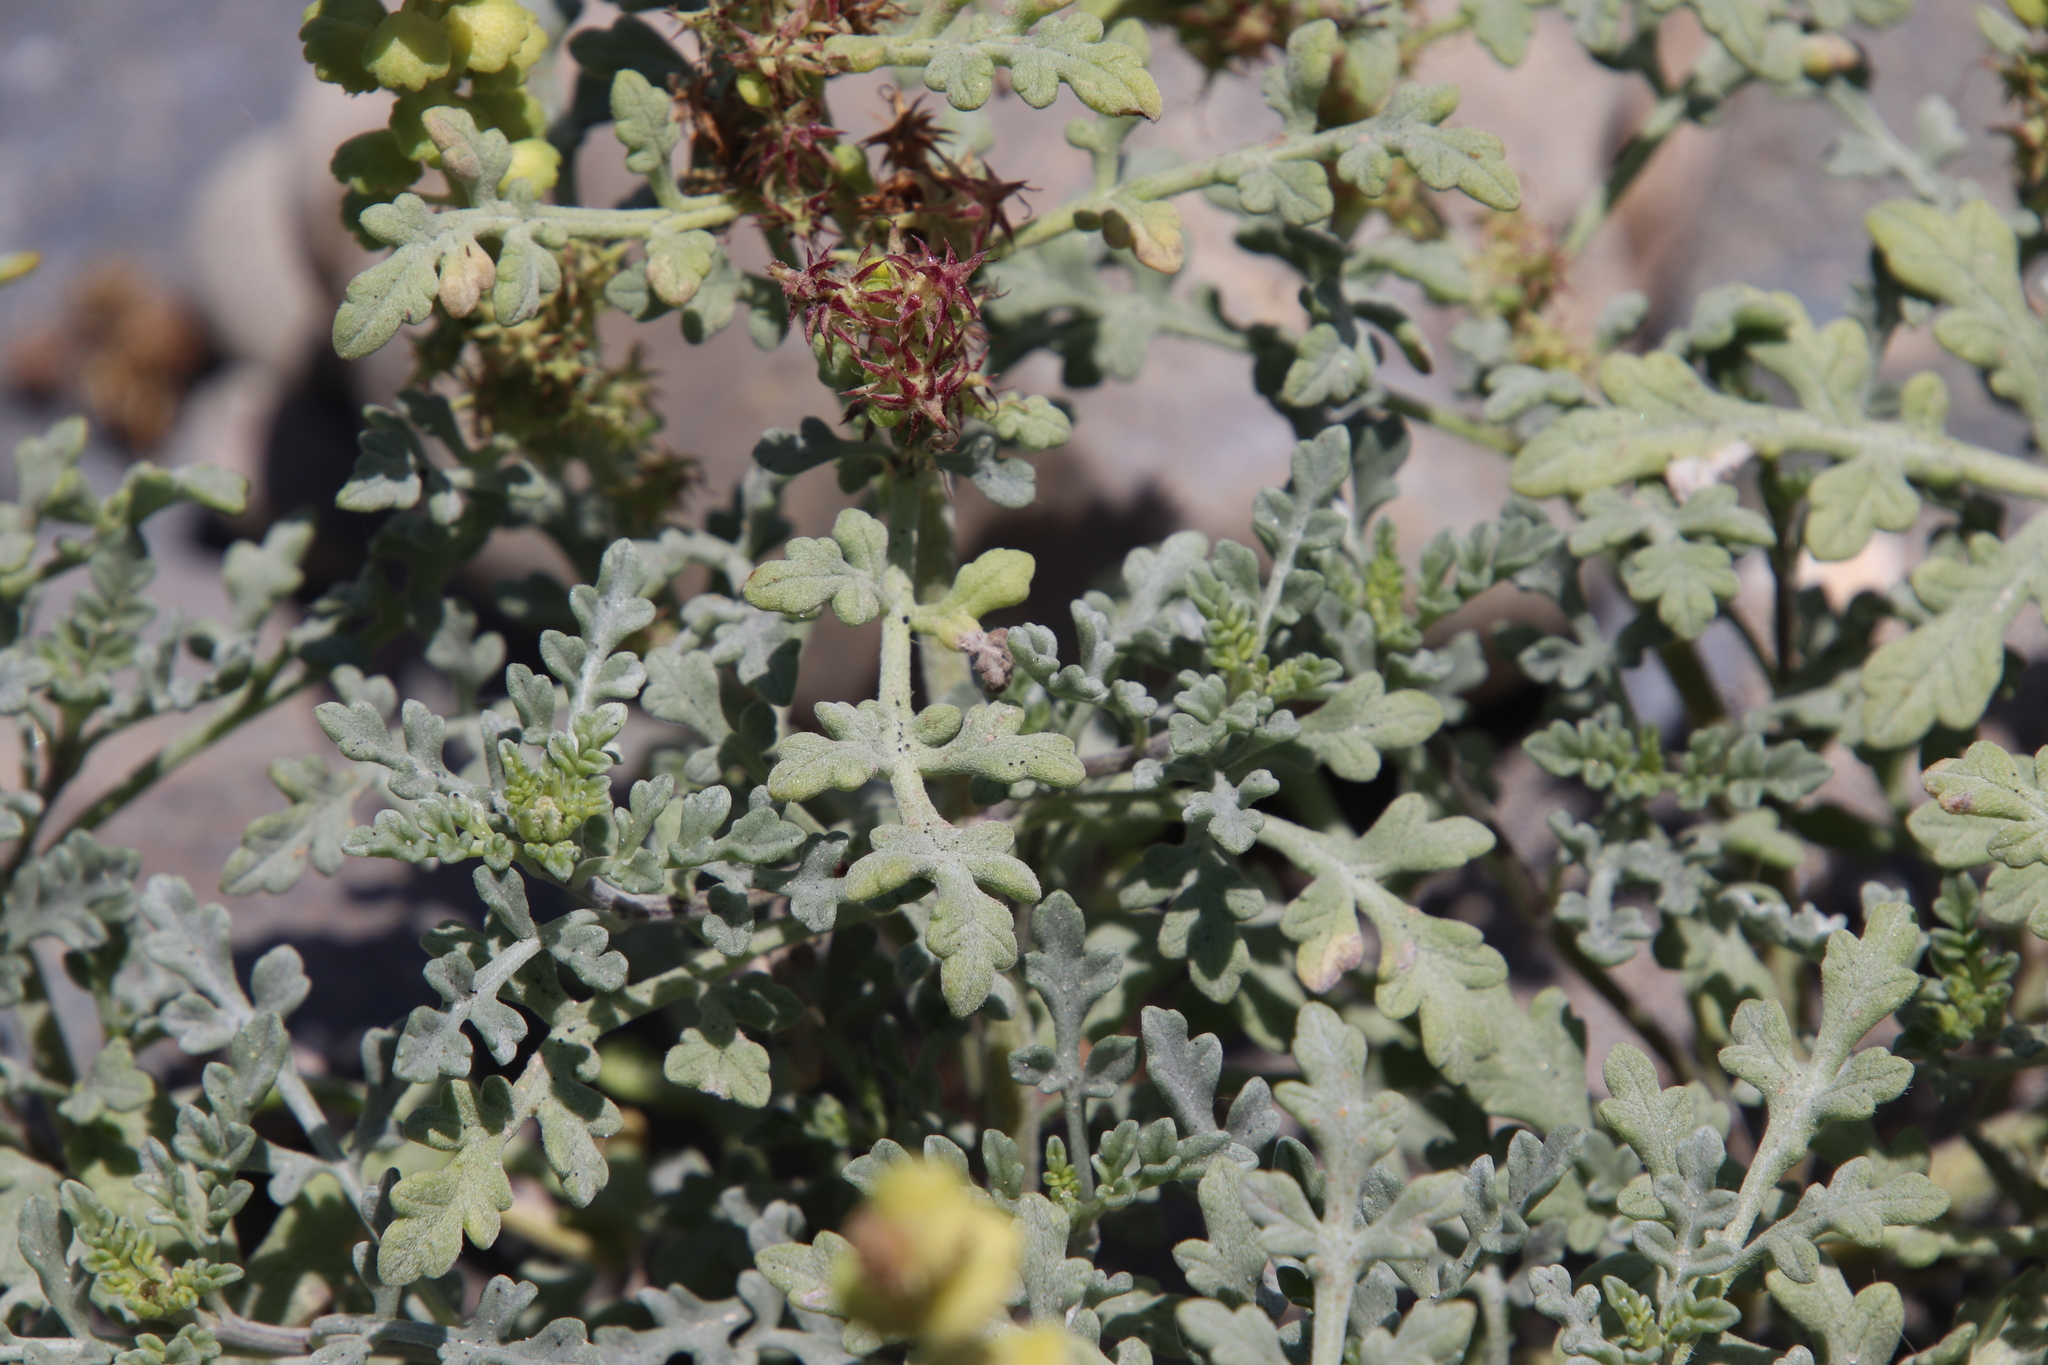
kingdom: Plantae
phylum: Tracheophyta
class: Magnoliopsida
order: Asterales
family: Asteraceae
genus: Ambrosia
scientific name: Ambrosia chamissonis
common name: Beachbur
